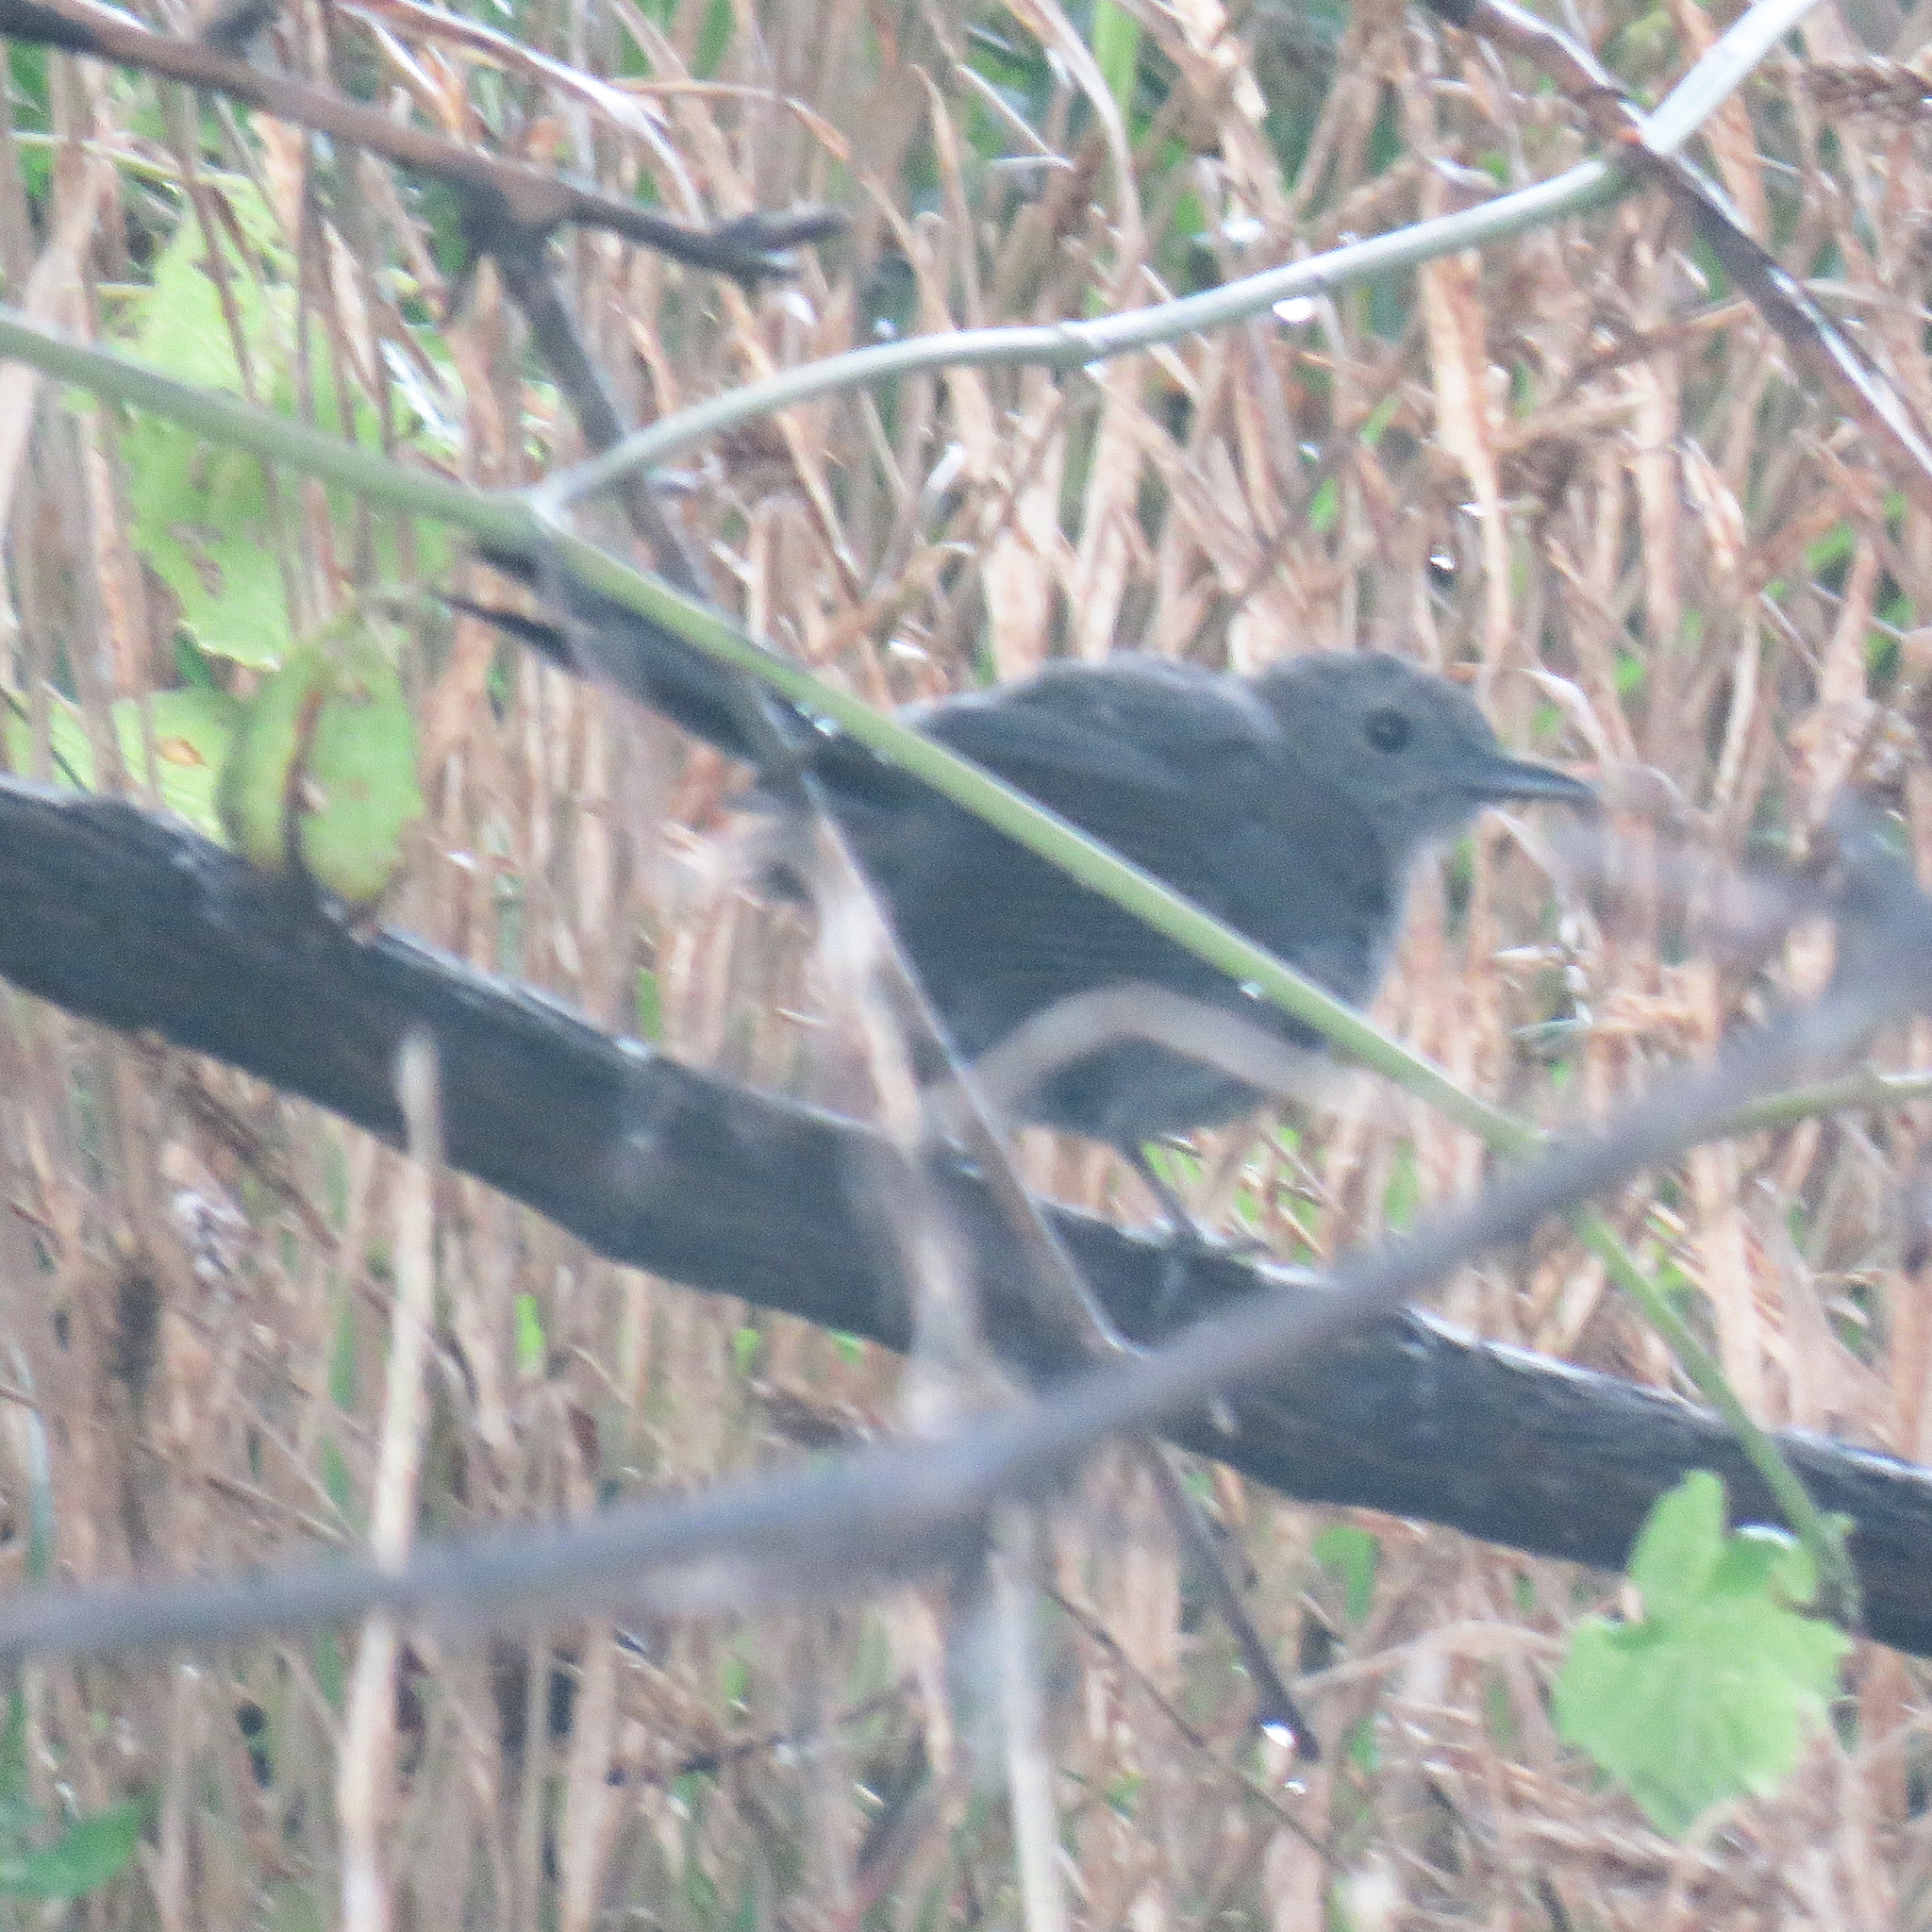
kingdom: Animalia
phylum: Chordata
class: Aves
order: Passeriformes
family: Mimidae
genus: Dumetella
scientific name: Dumetella carolinensis
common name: Gray catbird
